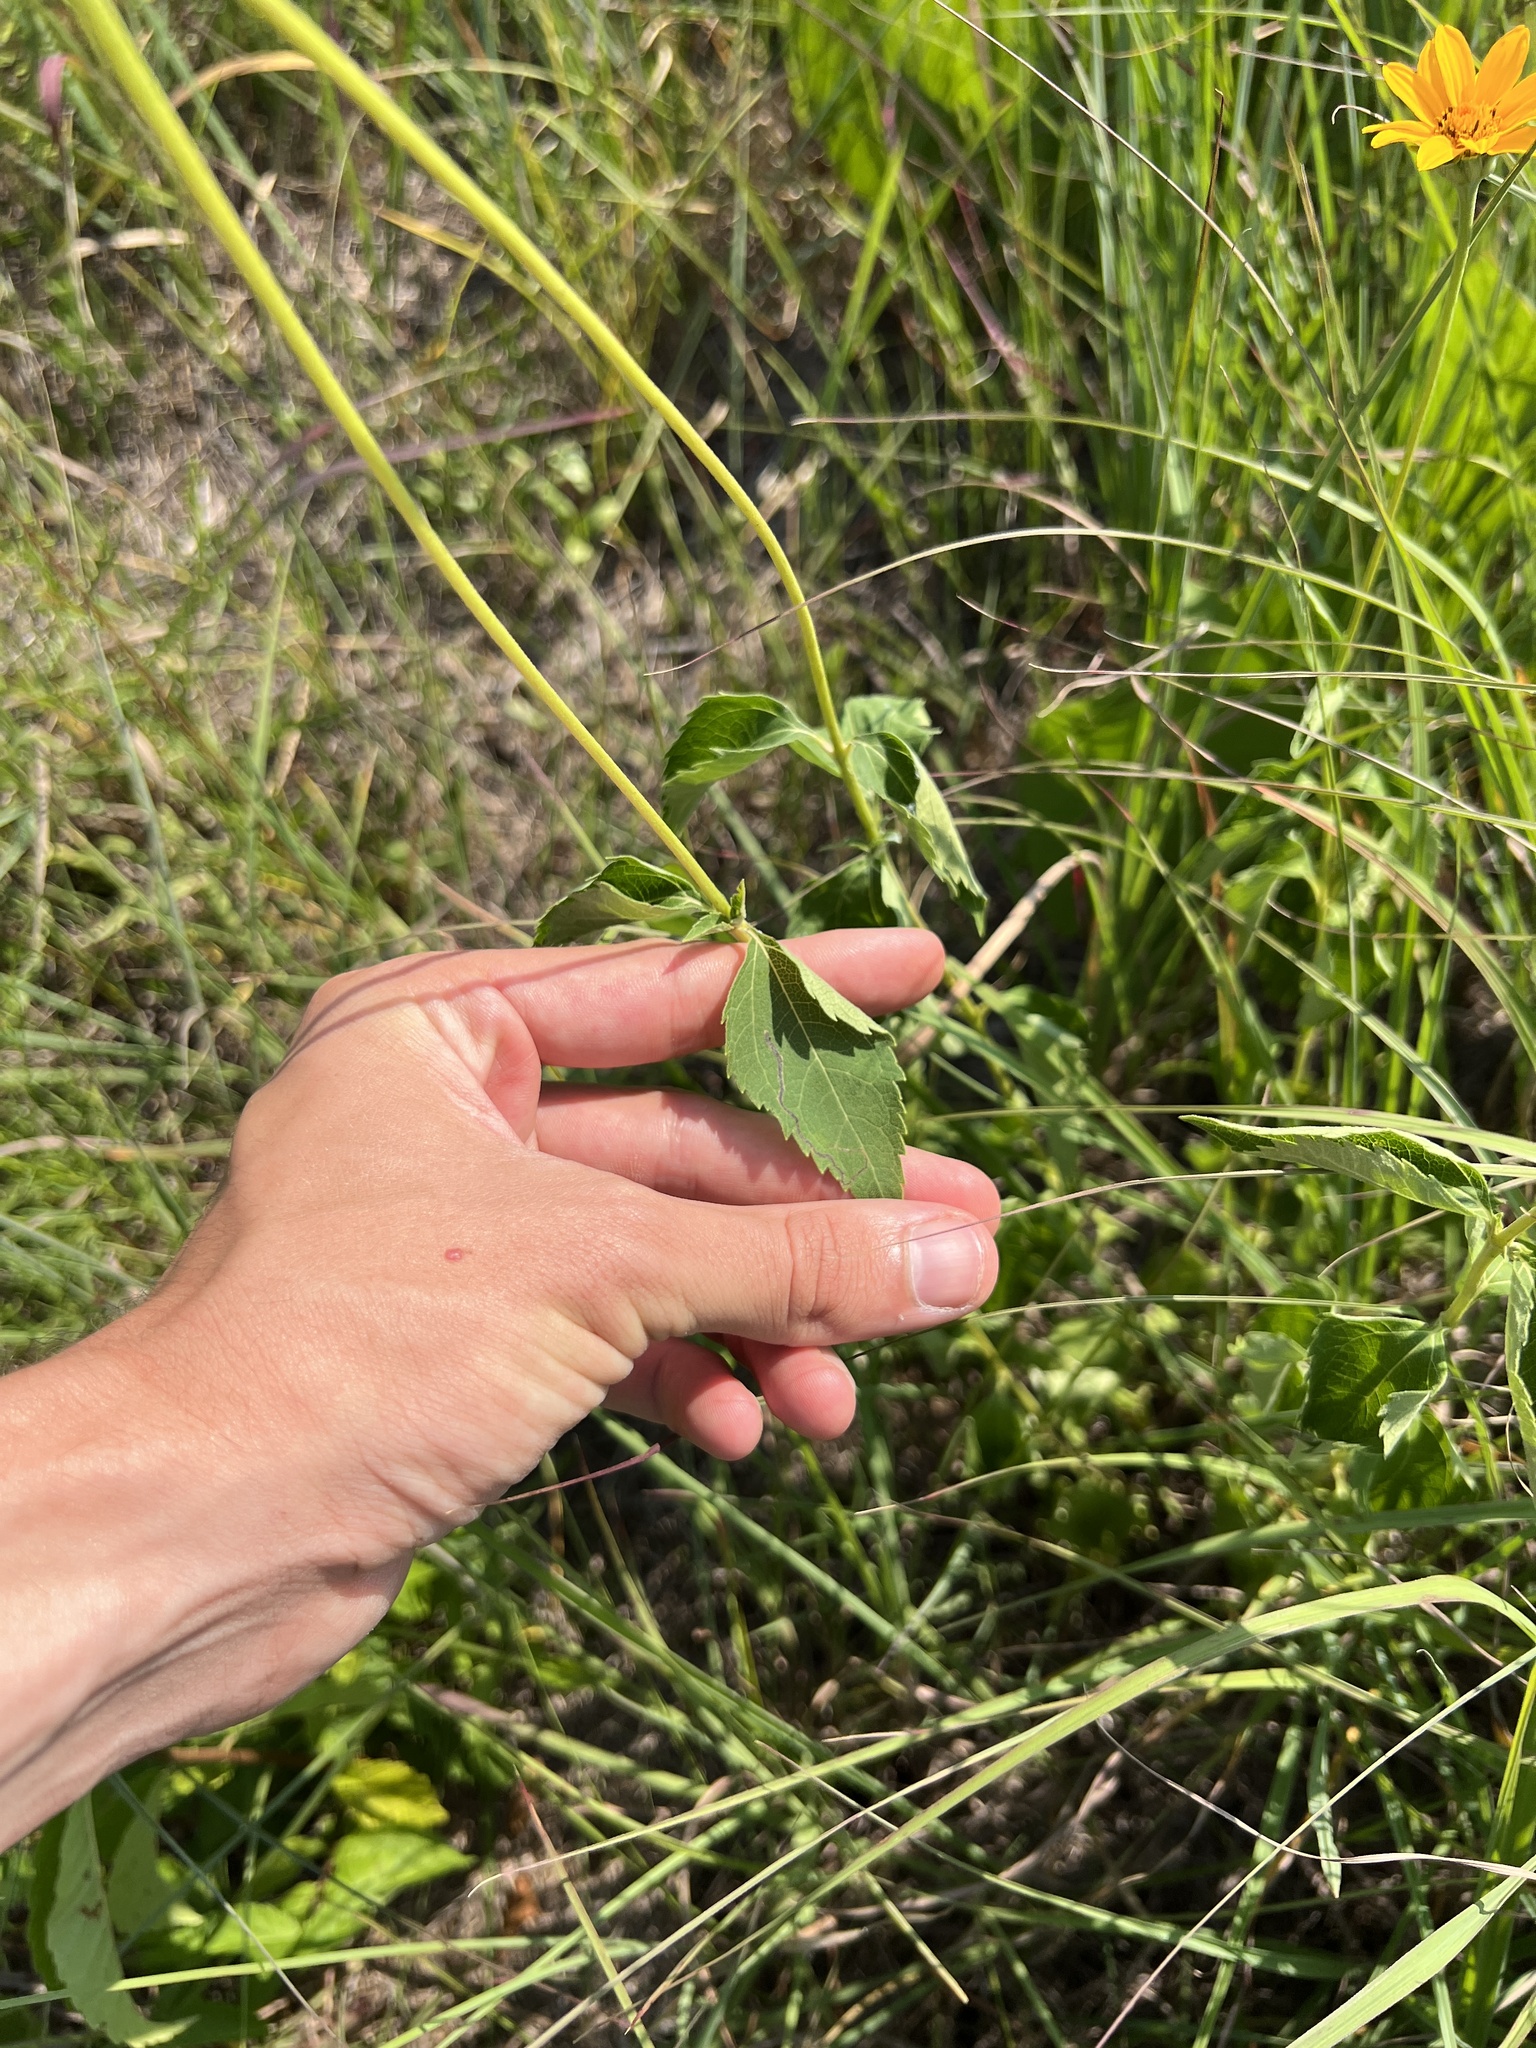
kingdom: Plantae
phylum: Tracheophyta
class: Magnoliopsida
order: Asterales
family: Asteraceae
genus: Heliopsis
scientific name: Heliopsis helianthoides
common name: False sunflower
